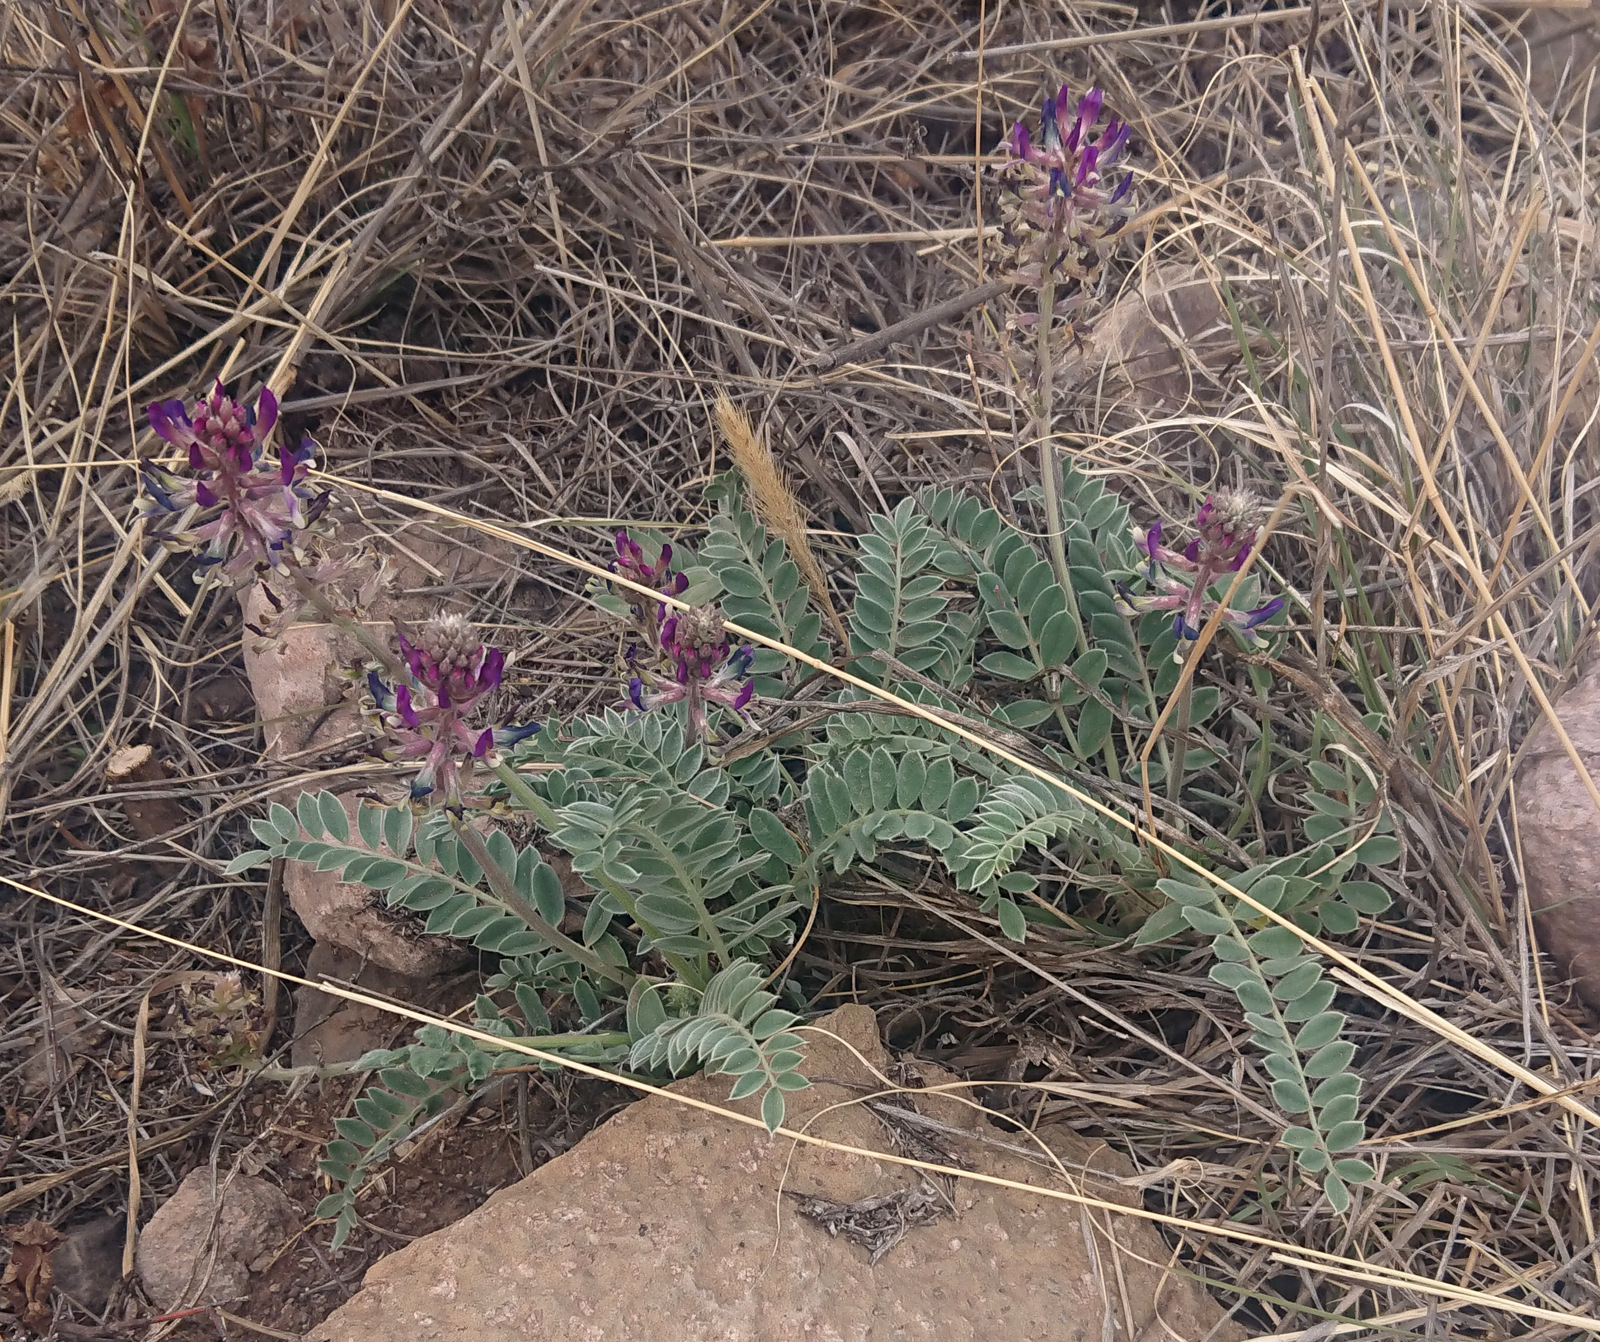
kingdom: Plantae
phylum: Tracheophyta
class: Magnoliopsida
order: Fabales
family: Fabaceae
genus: Astragalus
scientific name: Astragalus mollissimus
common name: Woolly locoweed
